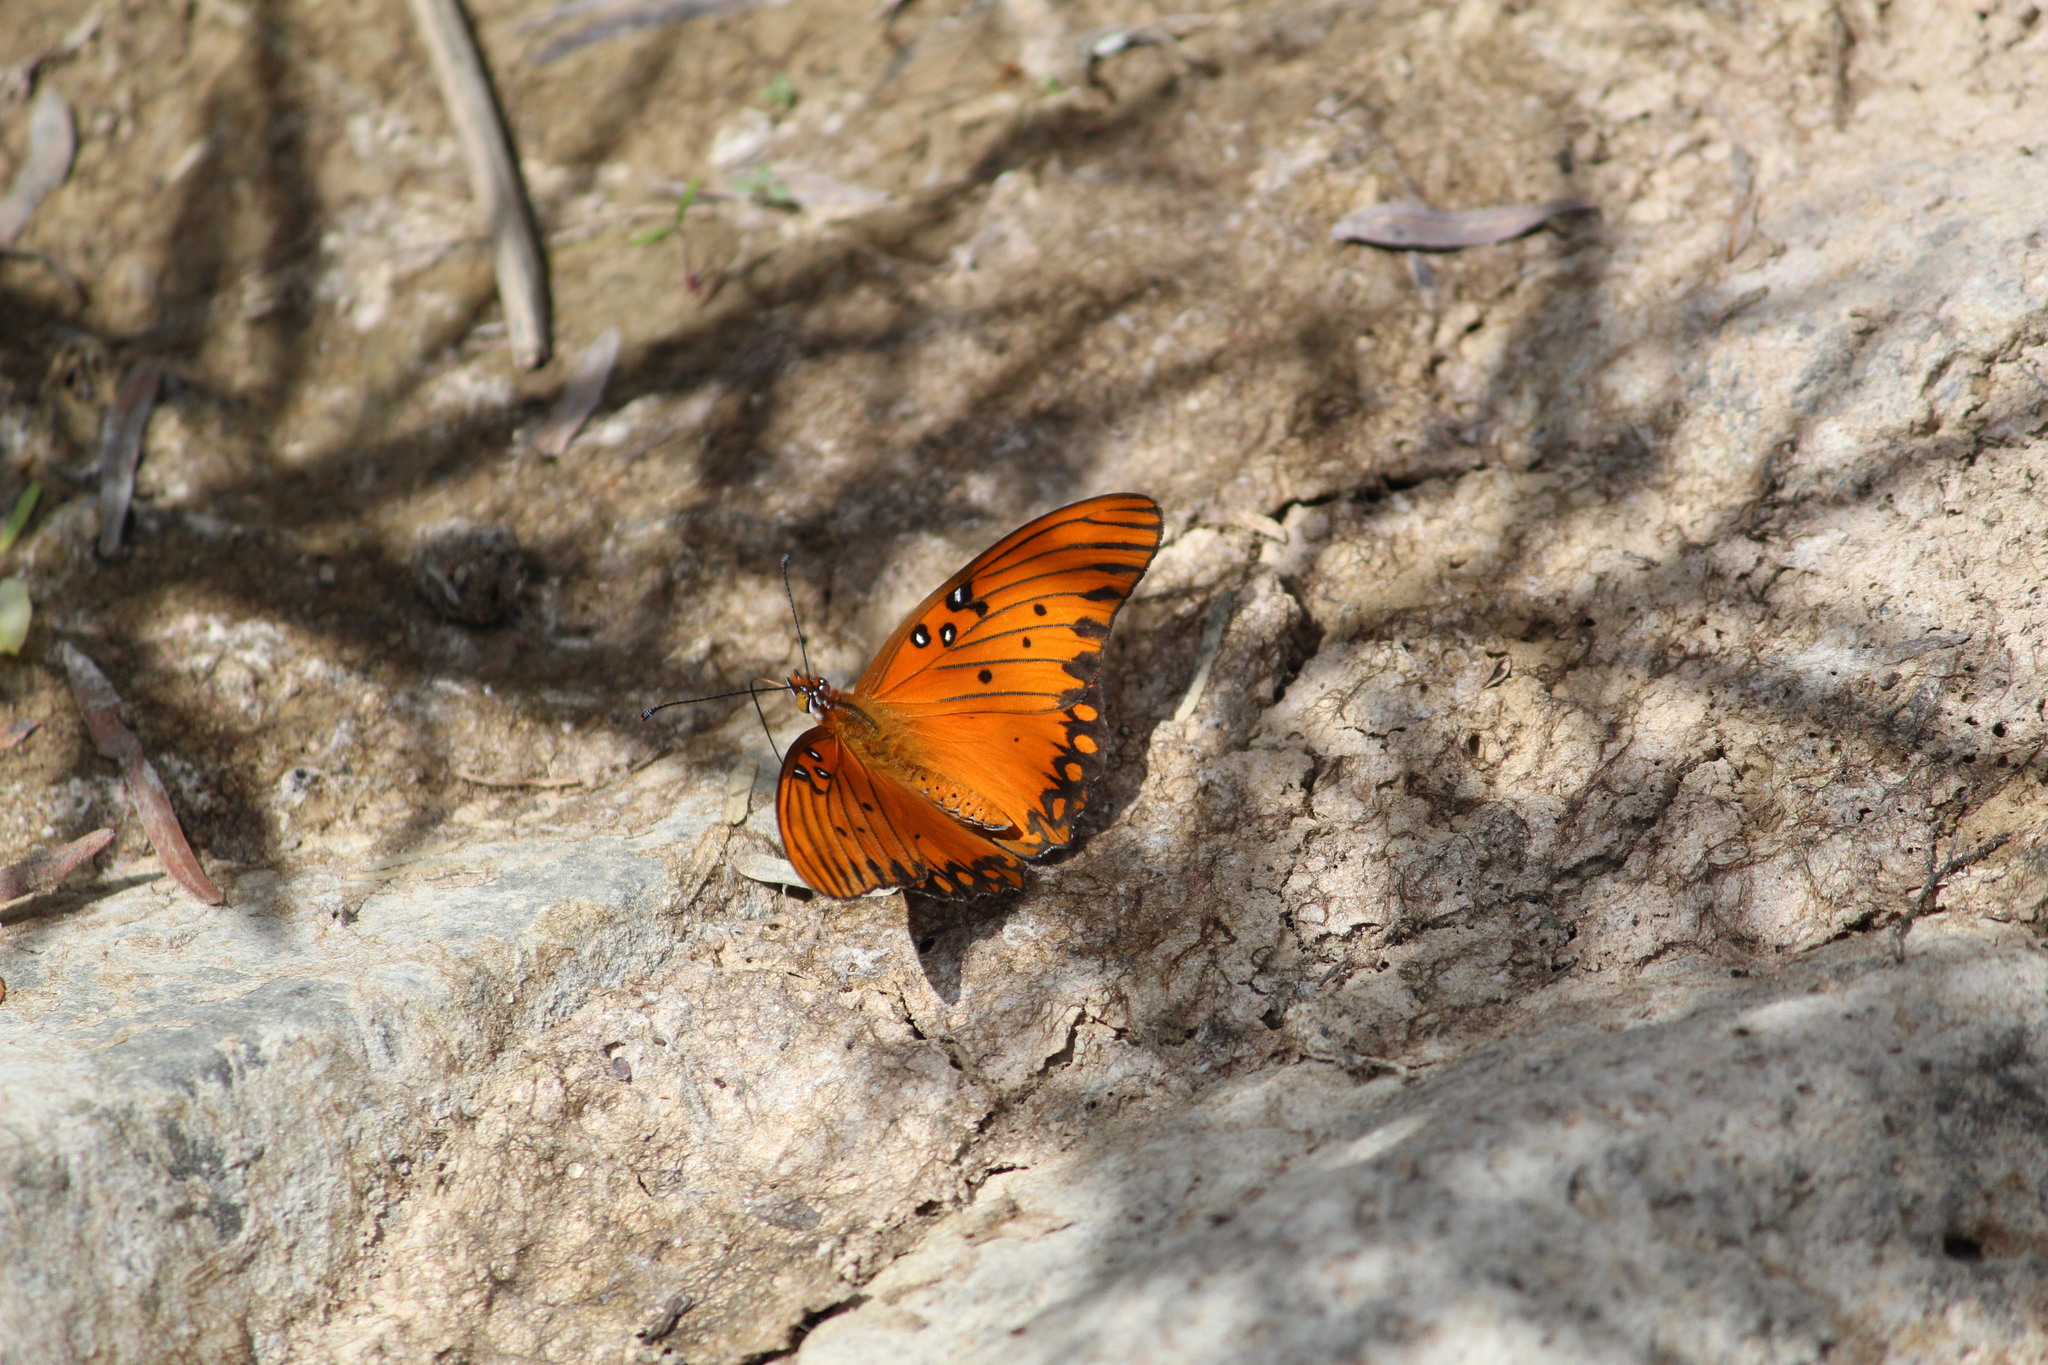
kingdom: Animalia
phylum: Arthropoda
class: Insecta
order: Lepidoptera
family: Nymphalidae
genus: Dione
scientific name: Dione vanillae
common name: Gulf fritillary
